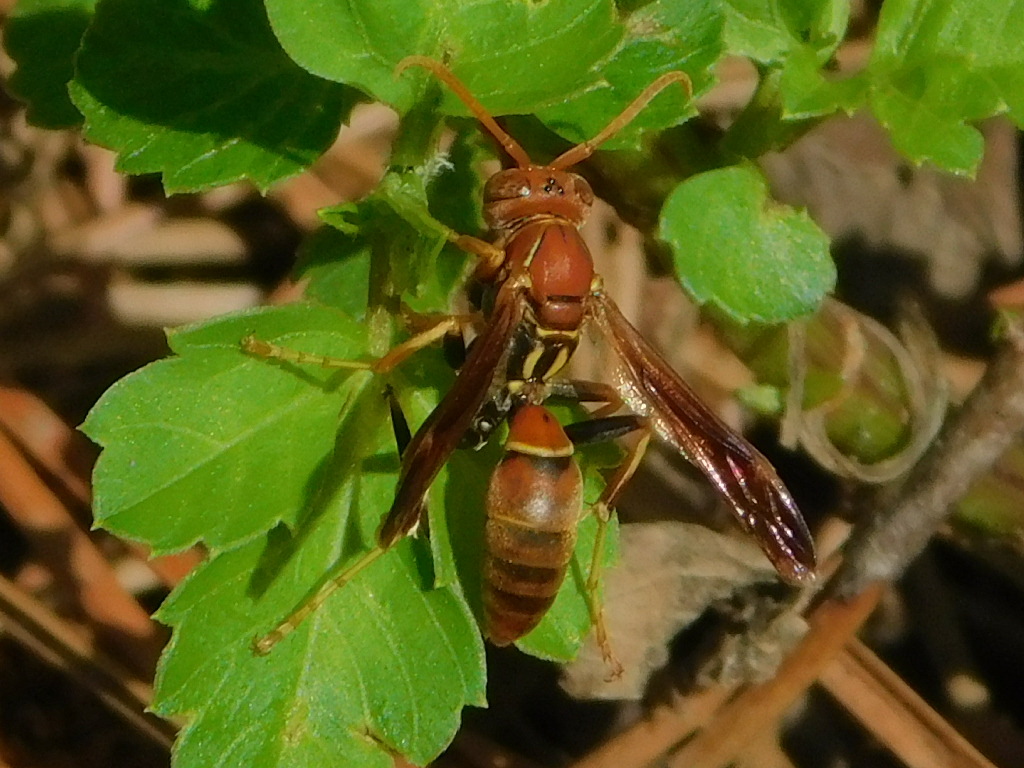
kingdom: Animalia
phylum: Arthropoda
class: Insecta
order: Hymenoptera
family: Eumenidae
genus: Polistes
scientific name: Polistes dorsalis
